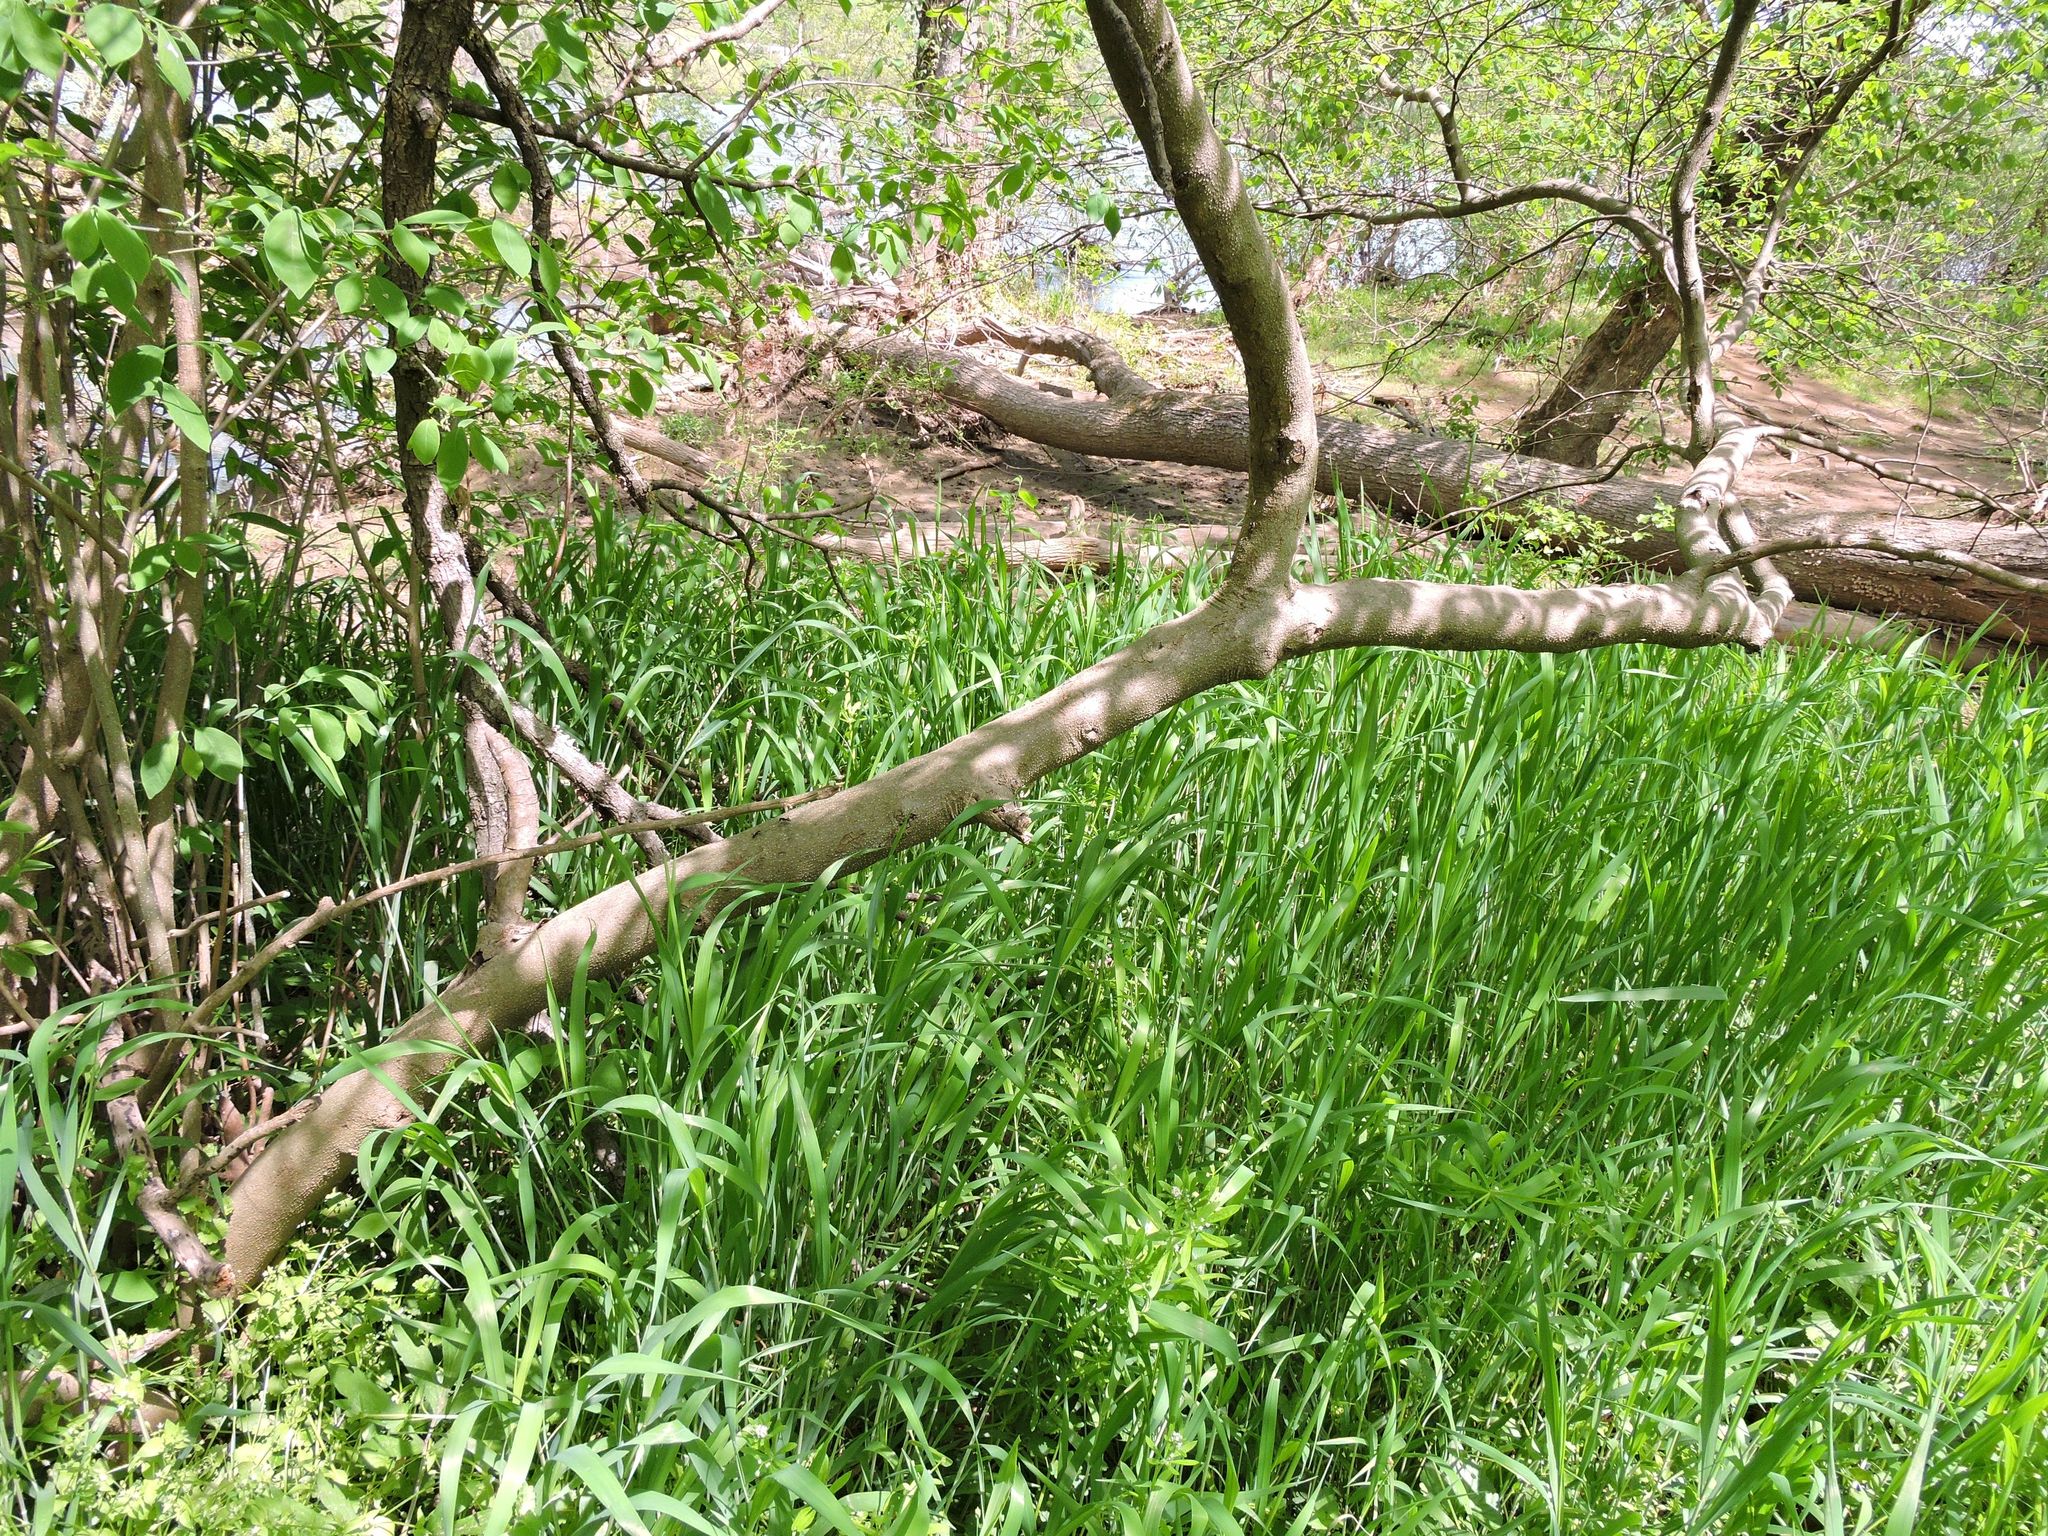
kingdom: Plantae
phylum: Tracheophyta
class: Magnoliopsida
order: Laurales
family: Lauraceae
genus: Lindera
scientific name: Lindera benzoin
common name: Spicebush
